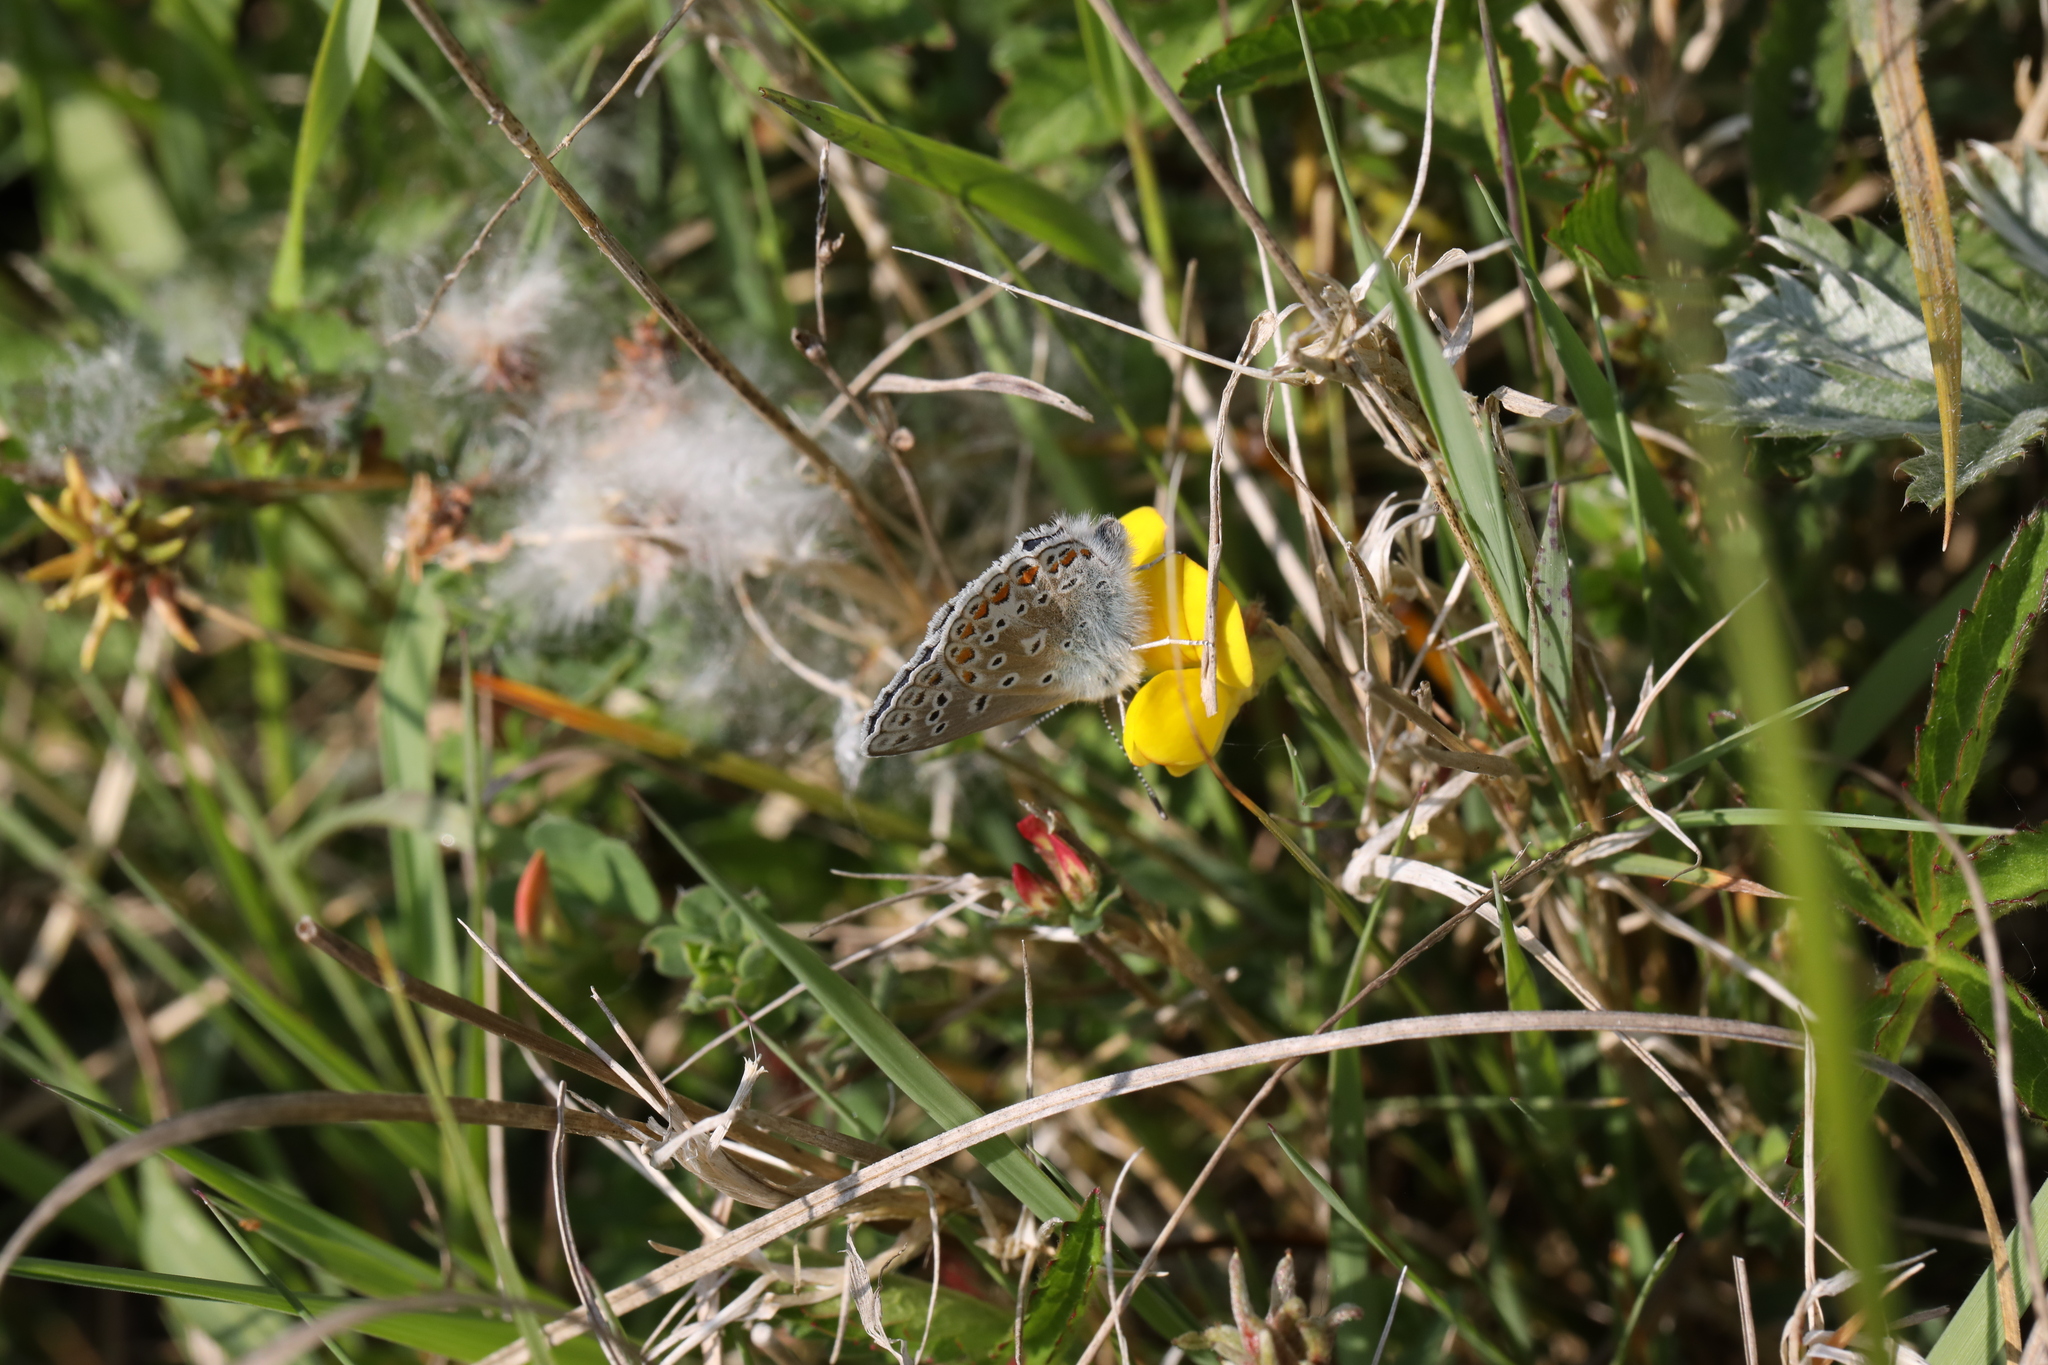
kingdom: Animalia
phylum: Arthropoda
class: Insecta
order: Lepidoptera
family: Lycaenidae
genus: Polyommatus
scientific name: Polyommatus icarus
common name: Common blue
